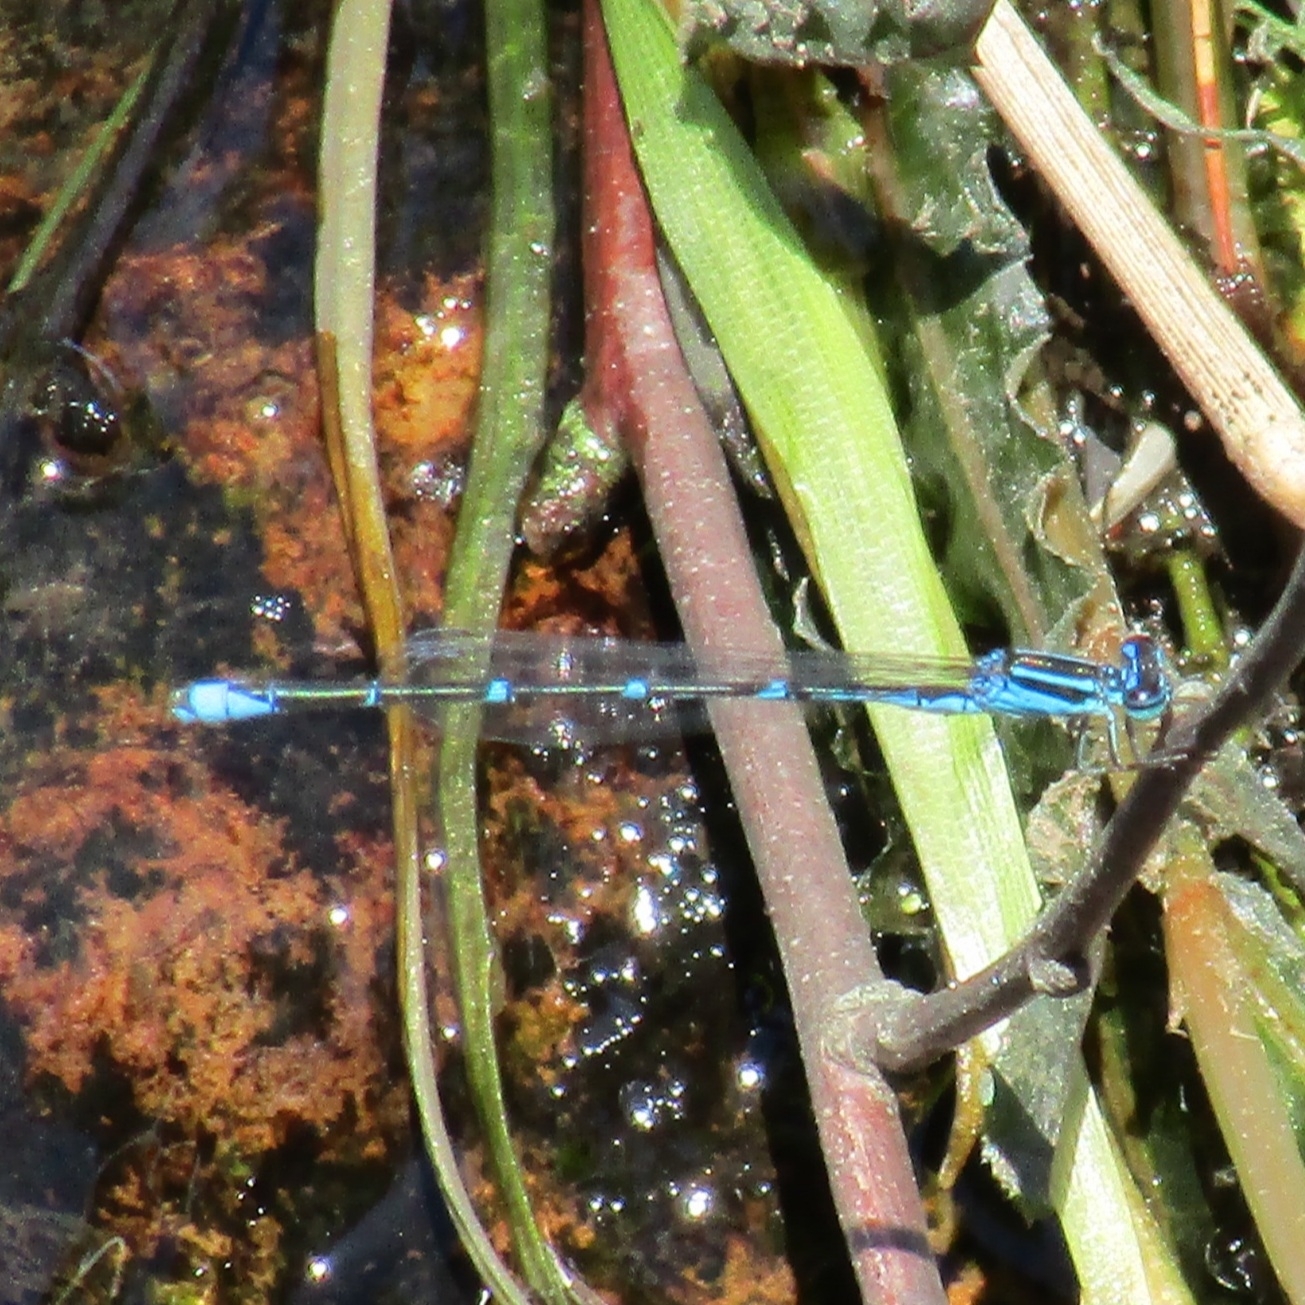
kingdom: Animalia
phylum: Arthropoda
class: Insecta
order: Odonata
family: Coenagrionidae
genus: Enallagma
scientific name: Enallagma exsulans
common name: Stream bluet
